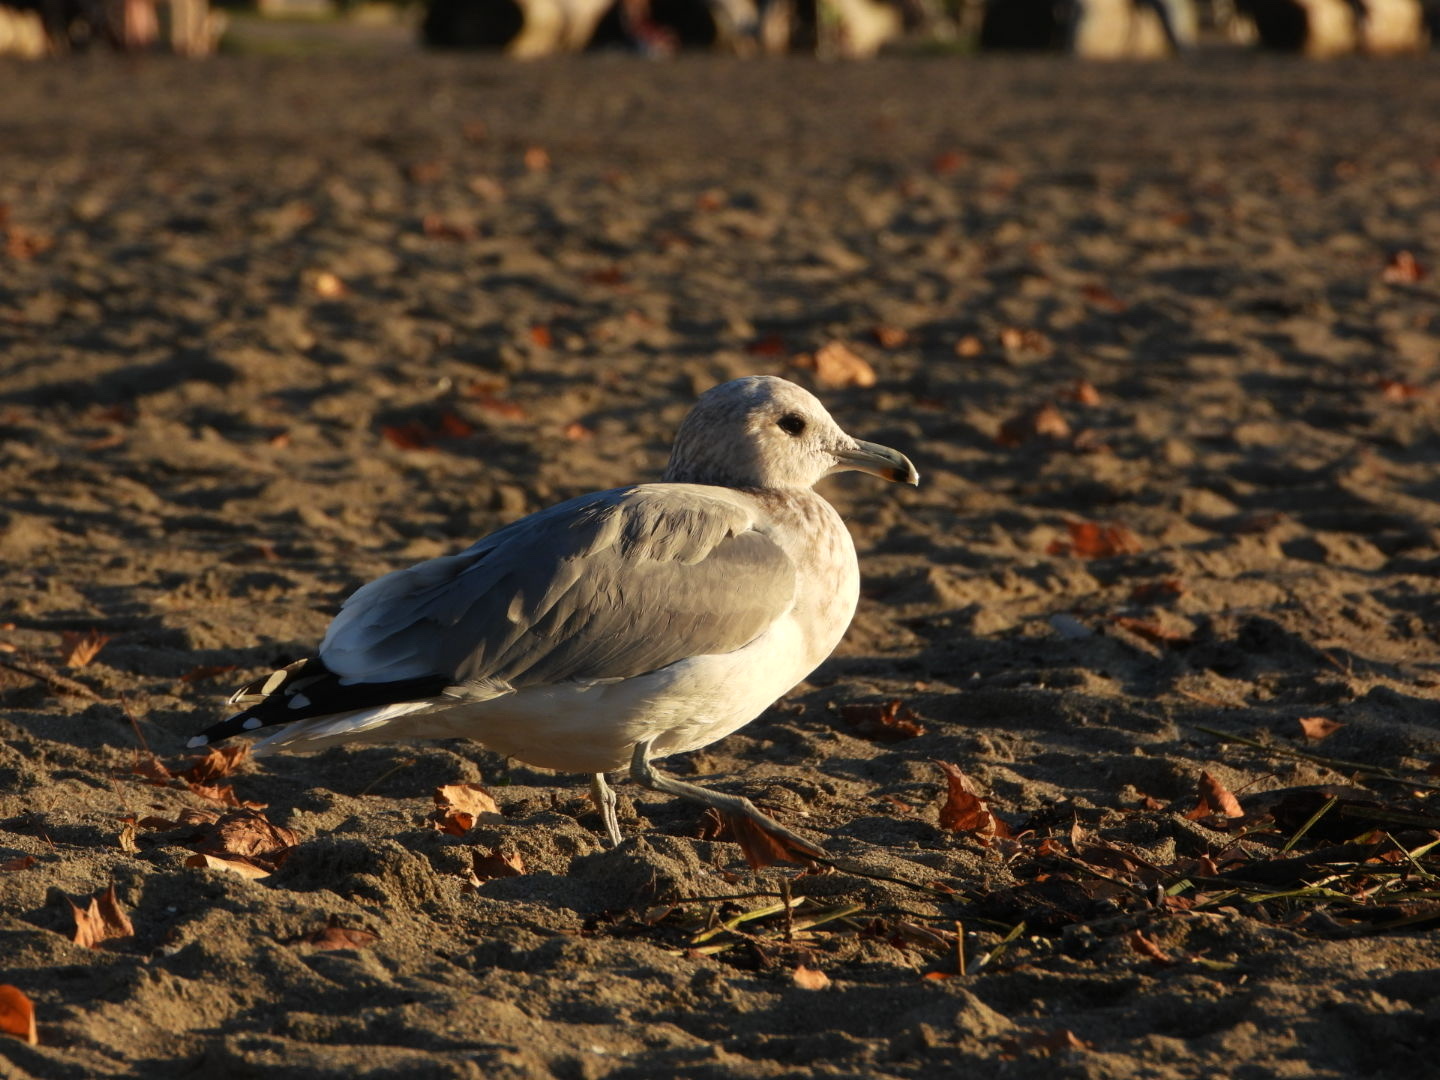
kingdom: Animalia
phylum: Chordata
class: Aves
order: Charadriiformes
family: Laridae
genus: Larus
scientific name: Larus californicus
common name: California gull
